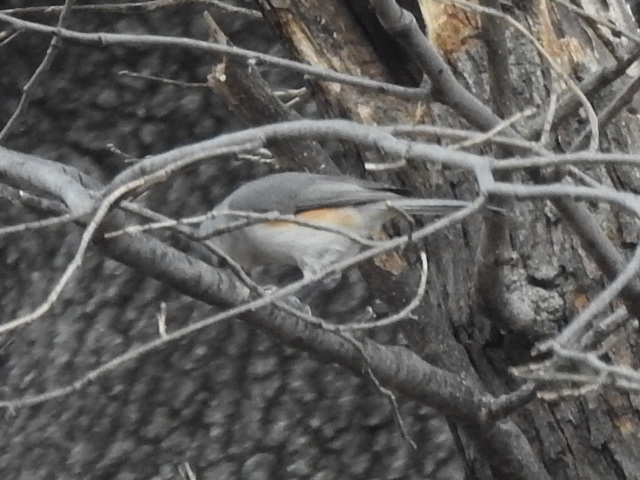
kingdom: Animalia
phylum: Chordata
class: Aves
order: Passeriformes
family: Paridae
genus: Baeolophus
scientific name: Baeolophus bicolor
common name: Tufted titmouse
